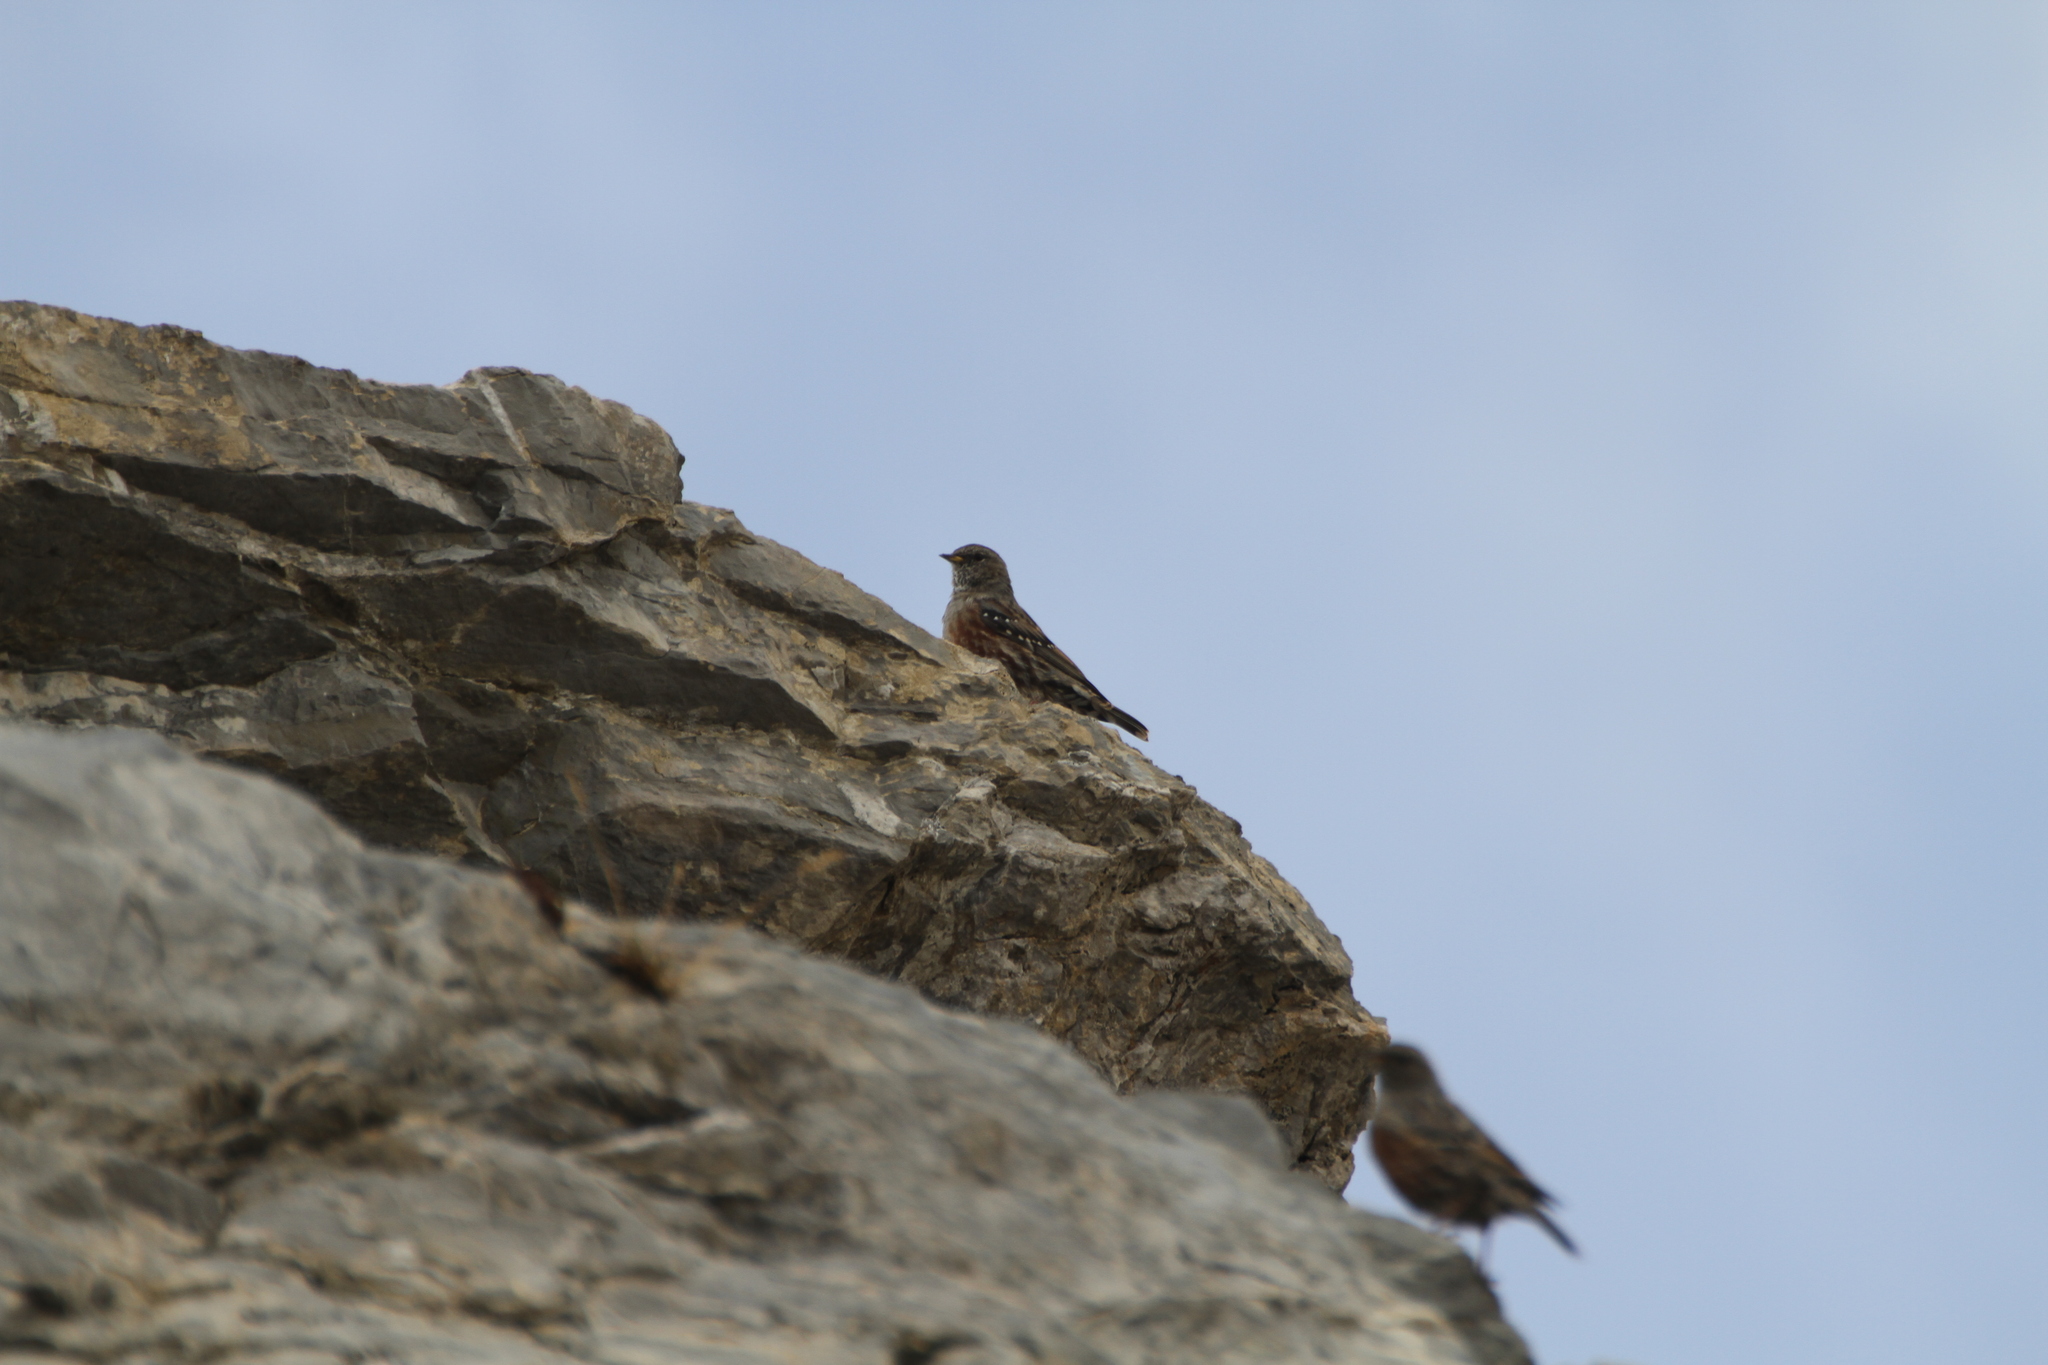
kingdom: Animalia
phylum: Chordata
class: Aves
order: Passeriformes
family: Prunellidae
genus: Prunella
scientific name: Prunella collaris
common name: Alpine accentor
